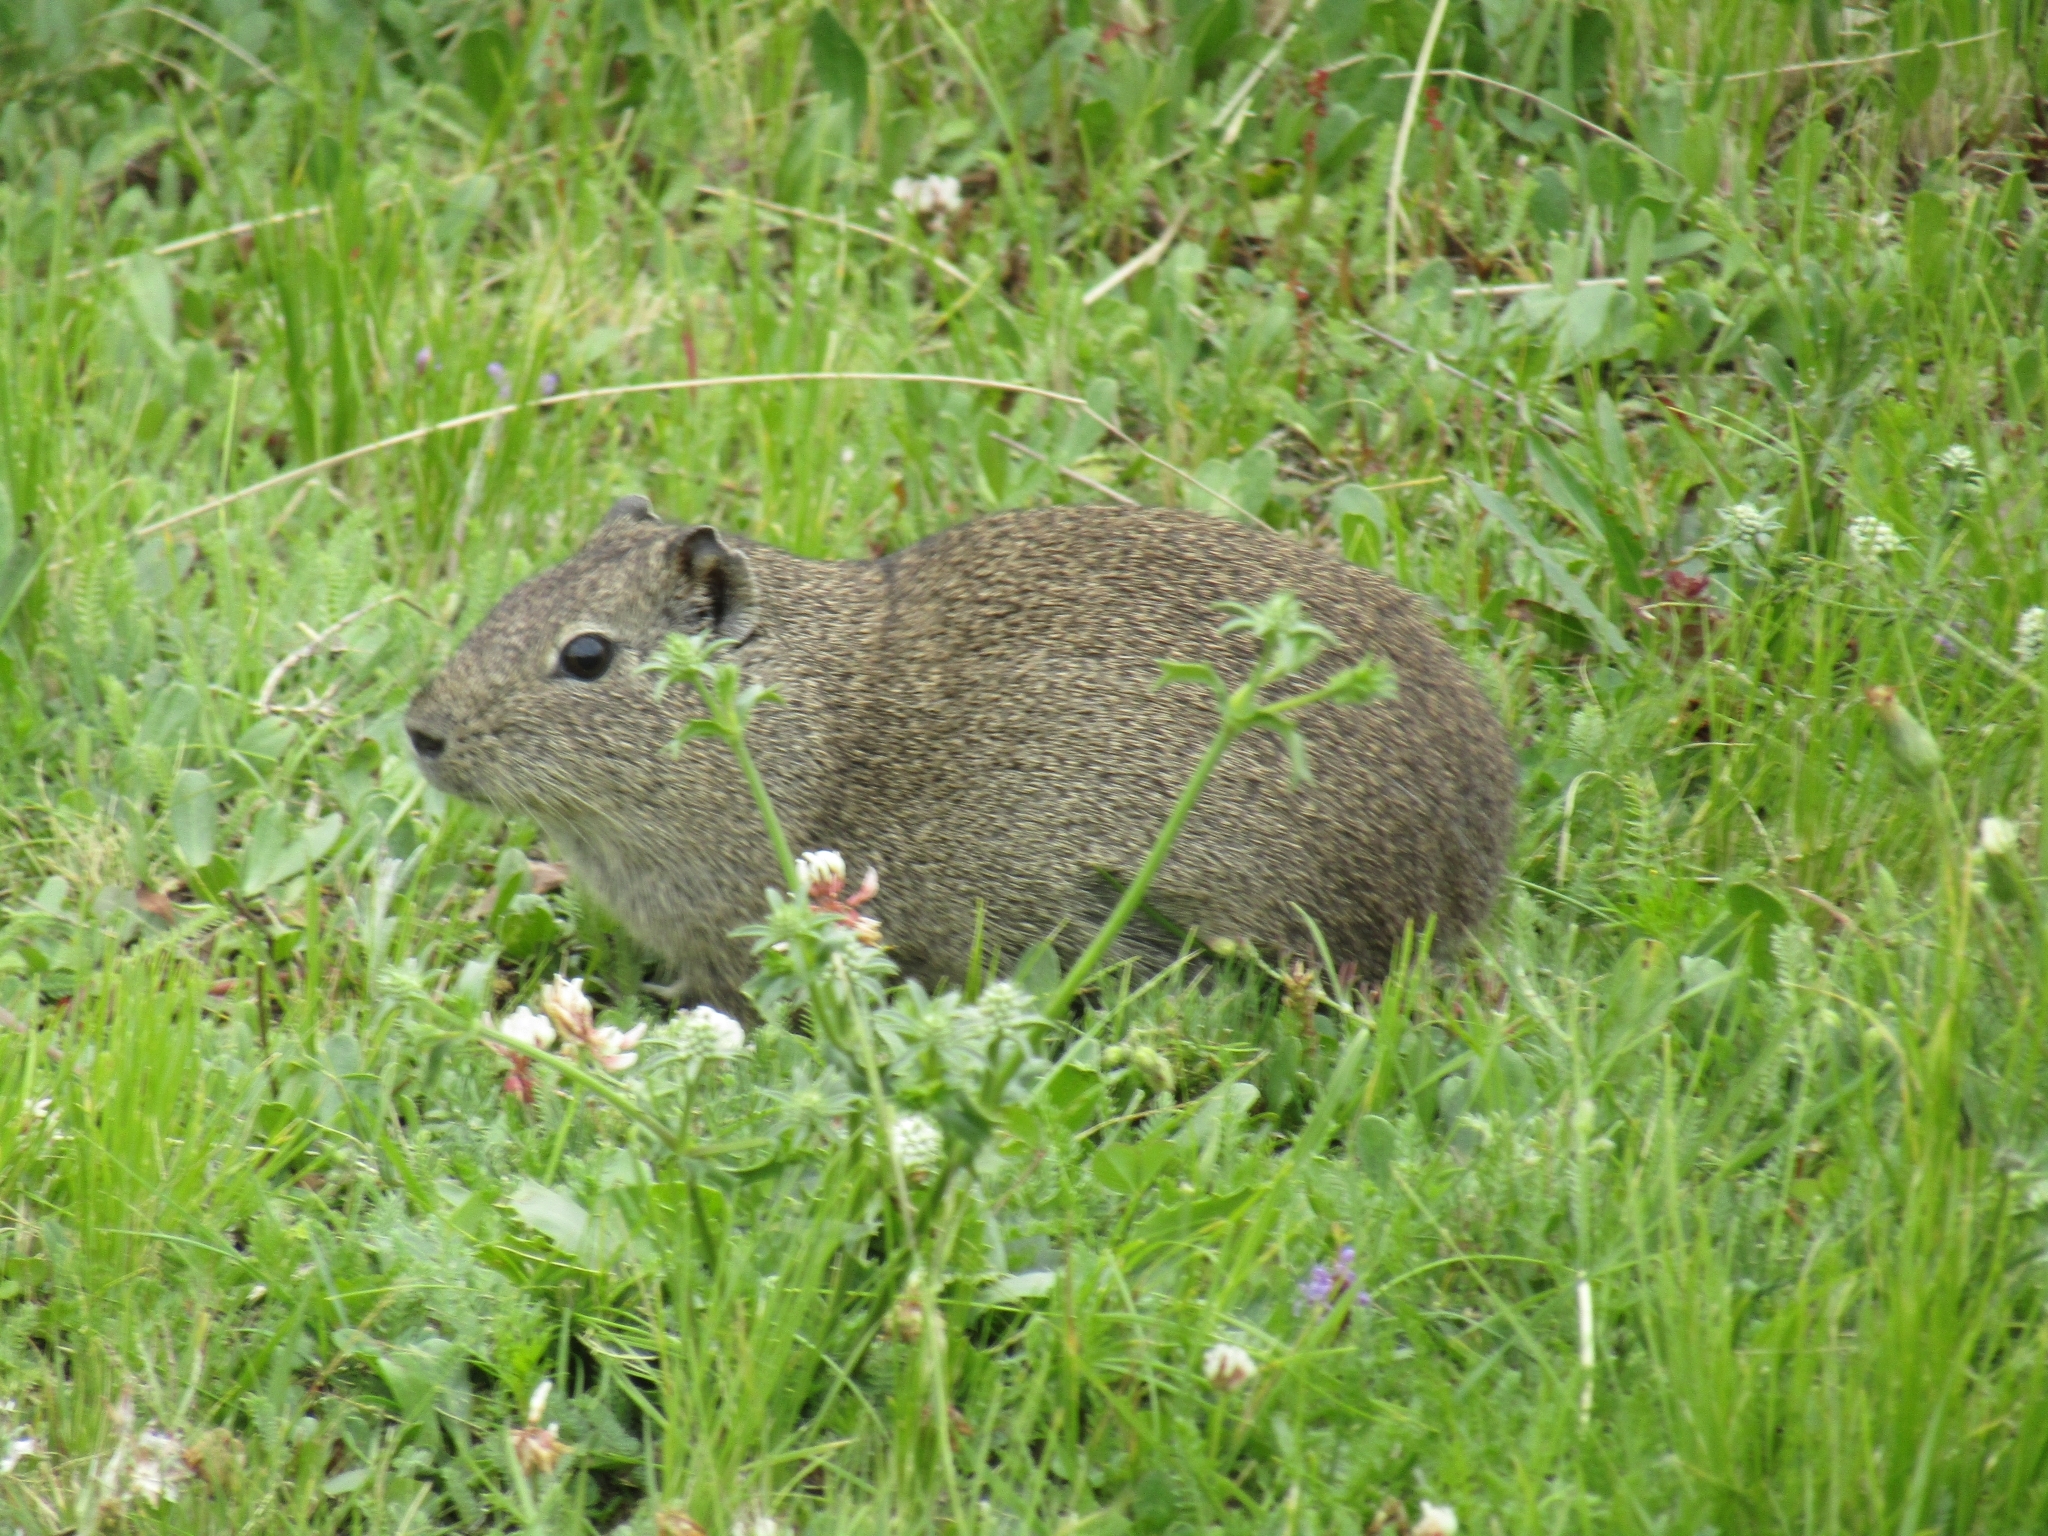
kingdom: Animalia
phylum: Chordata
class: Mammalia
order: Rodentia
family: Caviidae
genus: Cavia
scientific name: Cavia aperea
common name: Brazilian guinea pig
